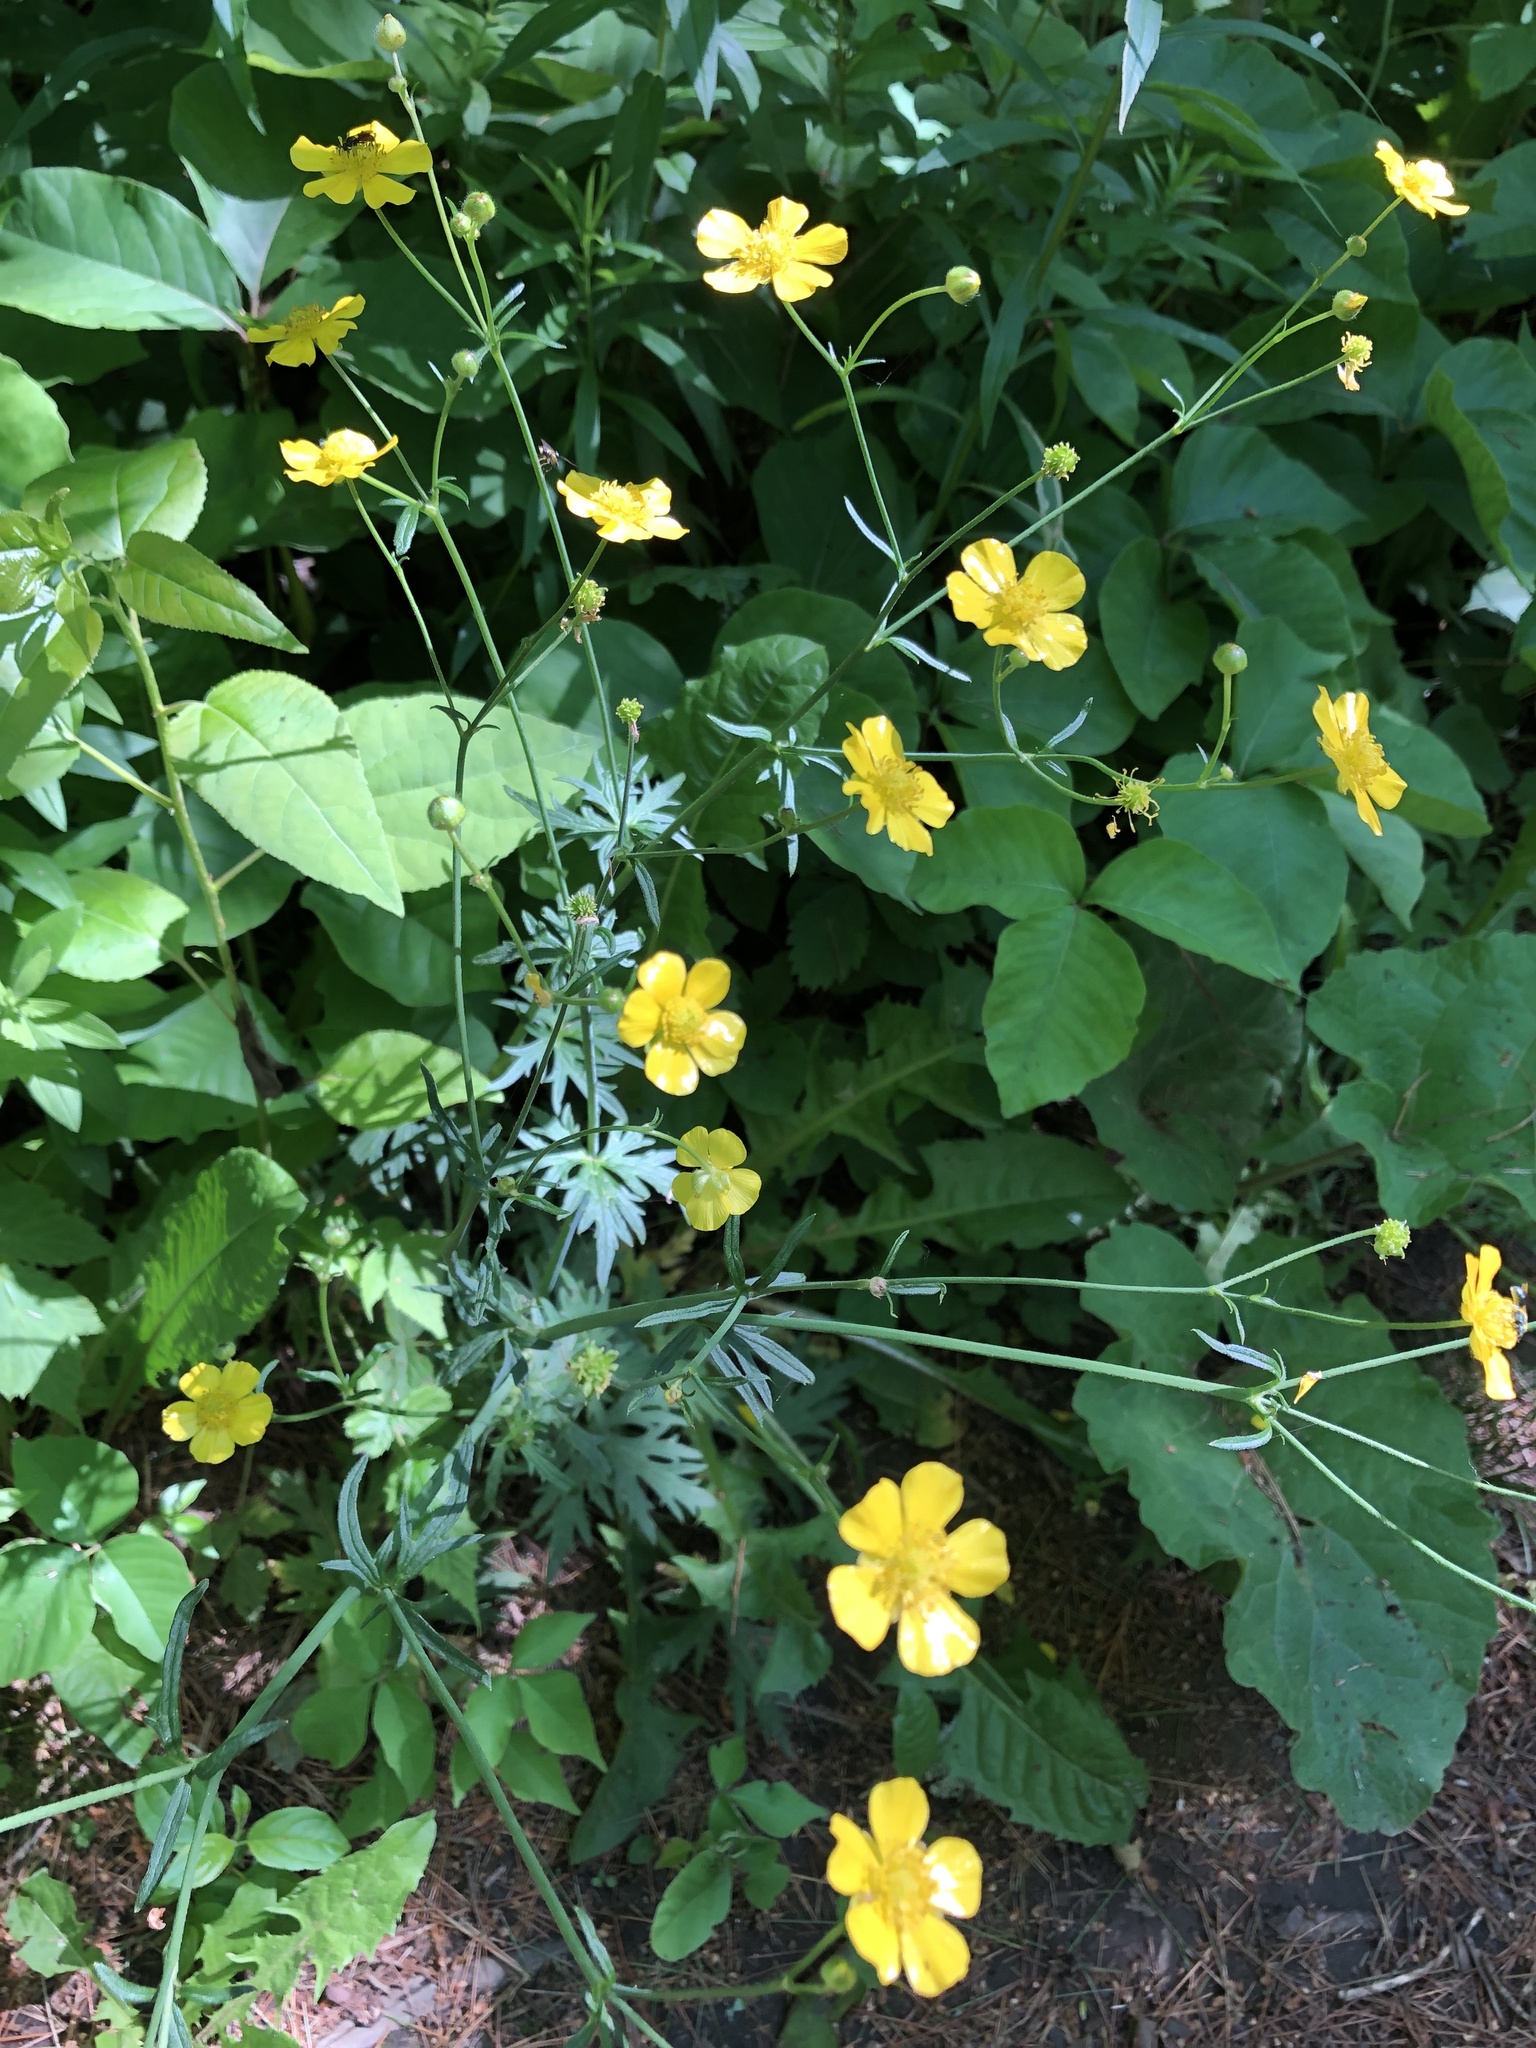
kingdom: Plantae
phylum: Tracheophyta
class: Magnoliopsida
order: Ranunculales
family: Ranunculaceae
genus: Ranunculus
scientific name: Ranunculus acris
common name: Meadow buttercup
